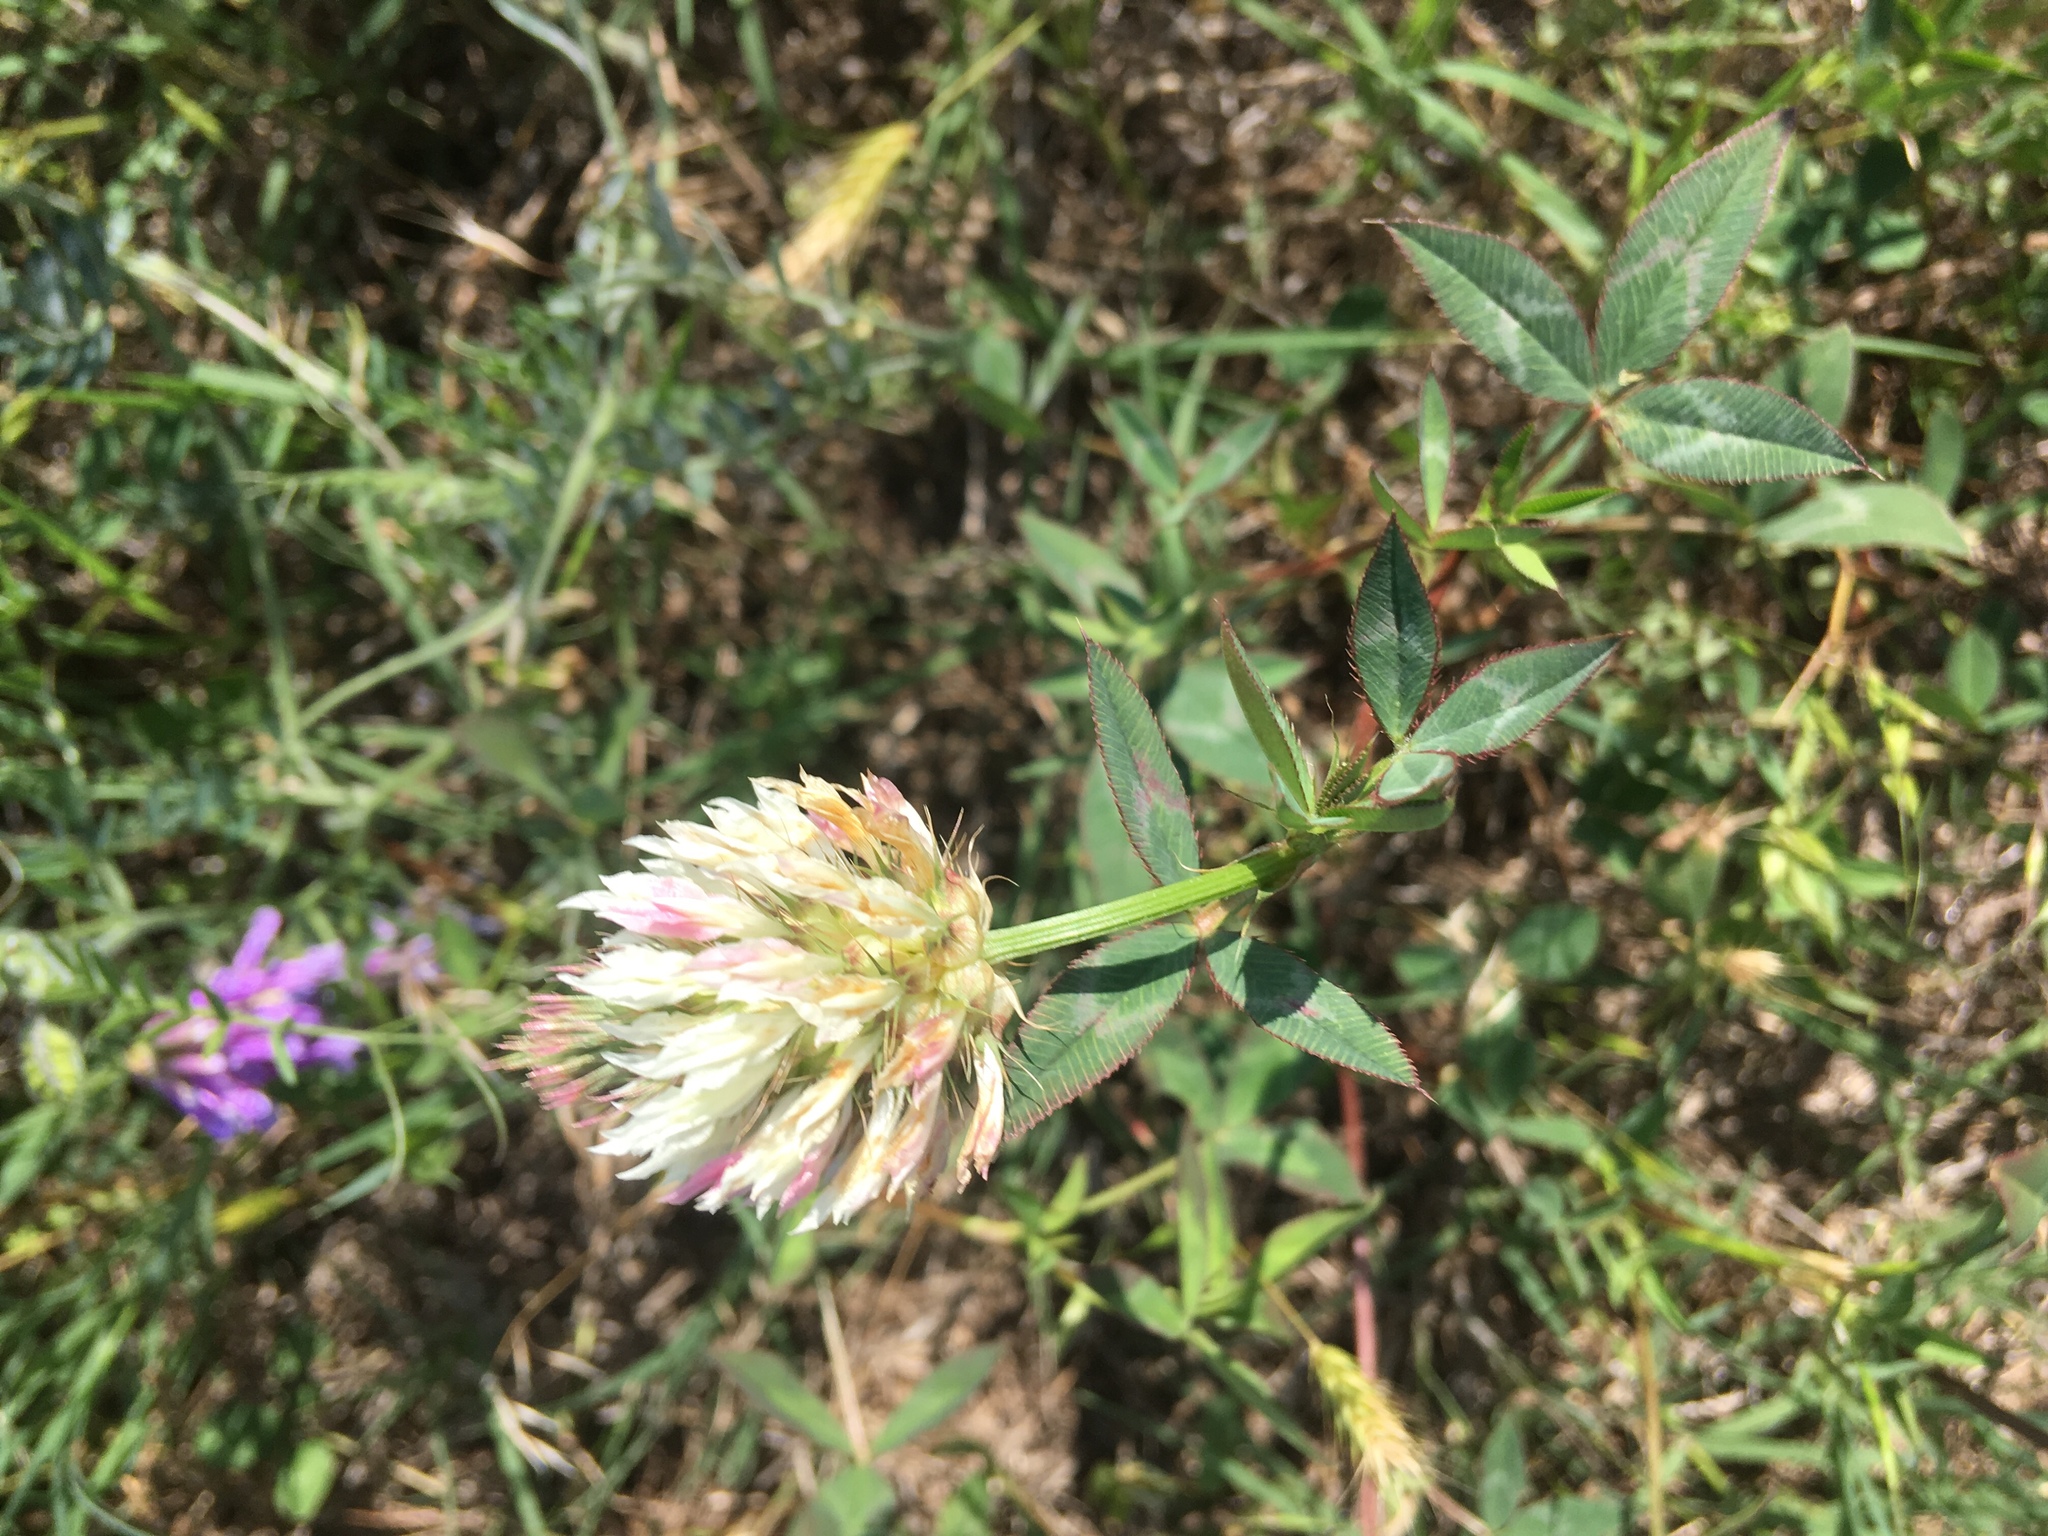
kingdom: Plantae
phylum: Tracheophyta
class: Magnoliopsida
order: Fabales
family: Fabaceae
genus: Trifolium
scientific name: Trifolium vesiculosum
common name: Arrowleaf clover
